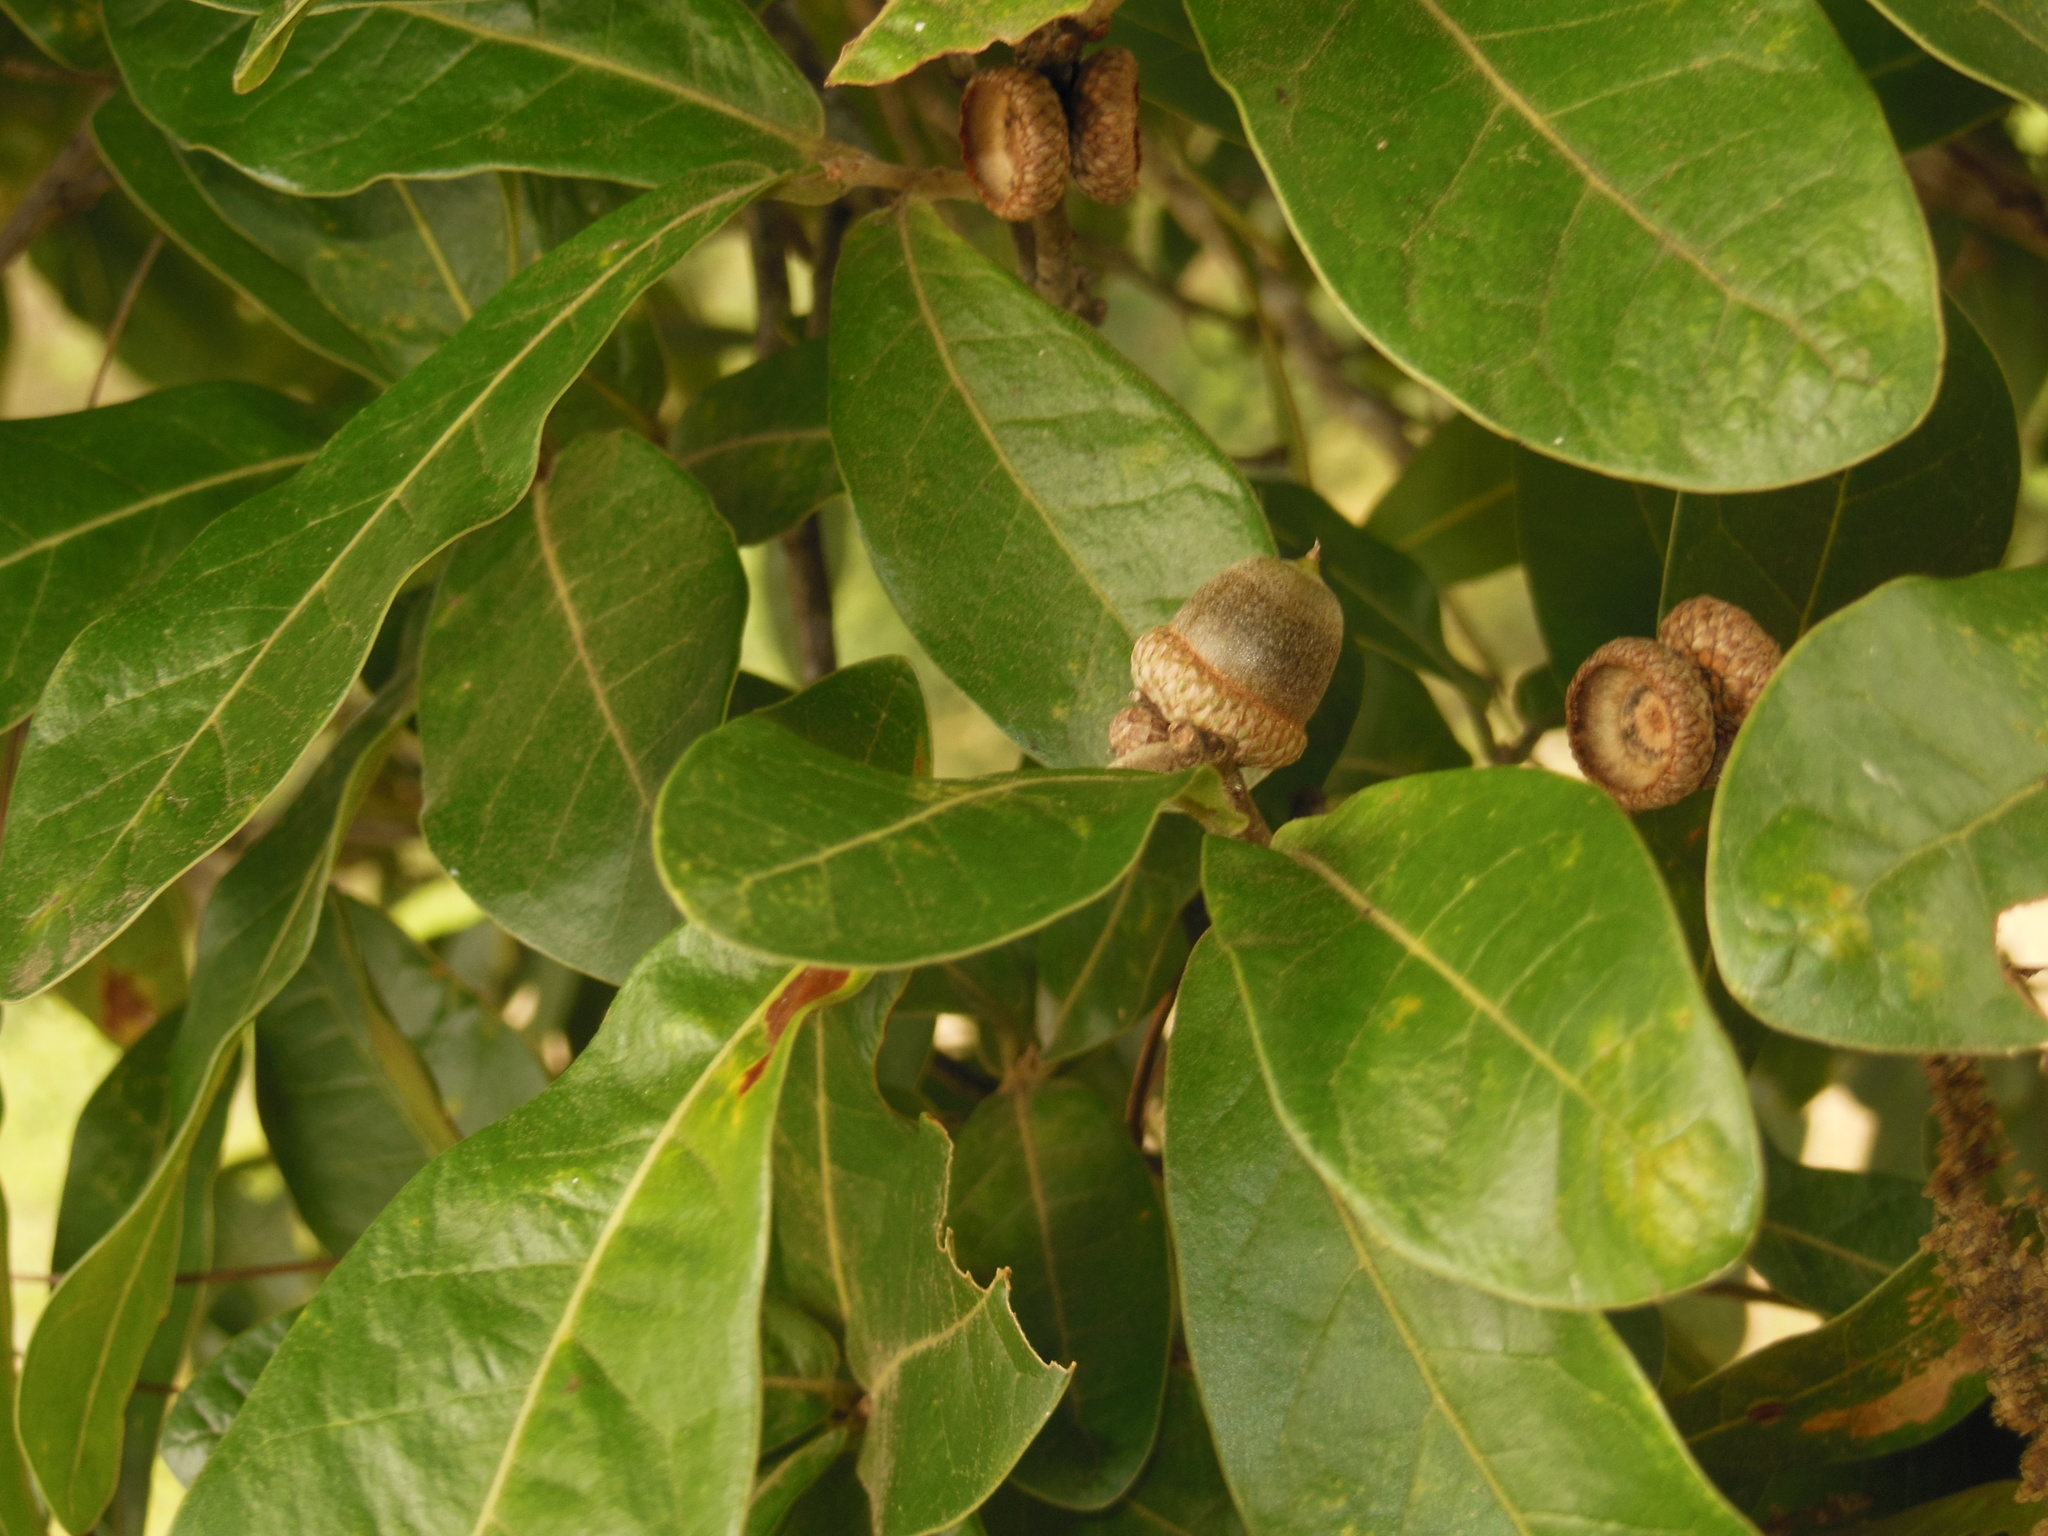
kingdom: Plantae
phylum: Tracheophyta
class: Magnoliopsida
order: Fagales
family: Fagaceae
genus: Quercus
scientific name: Quercus elliptica
